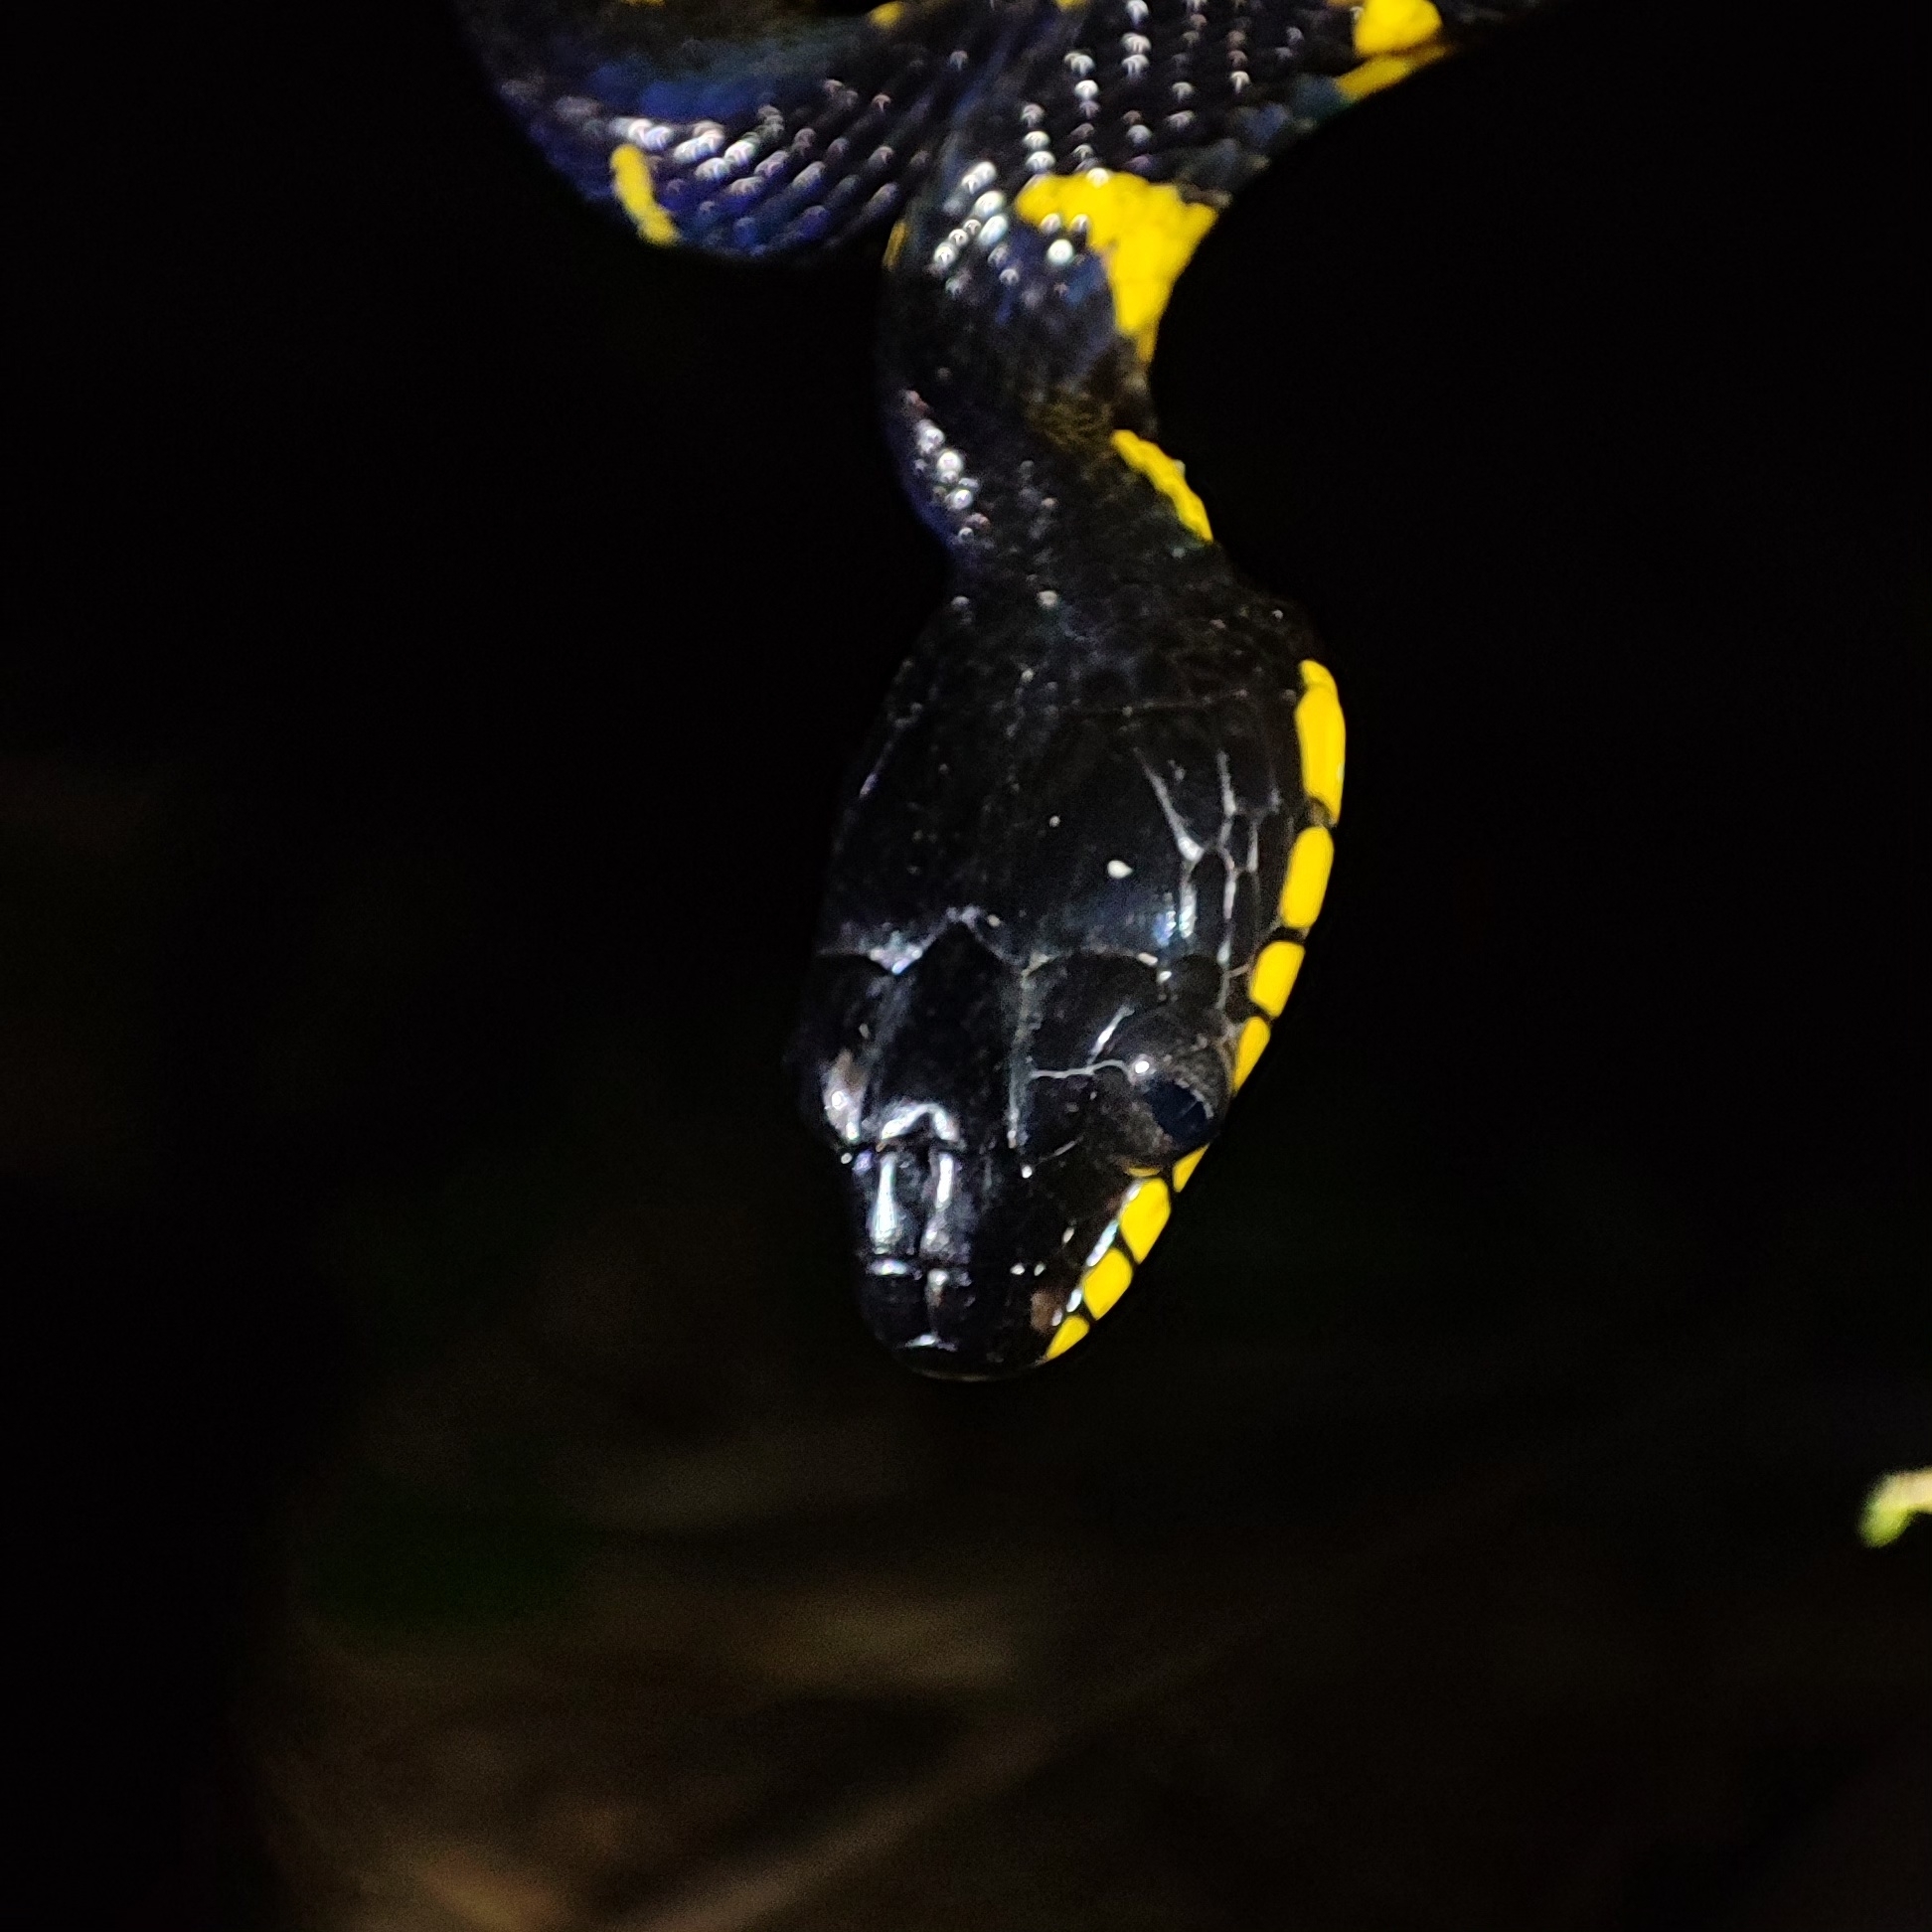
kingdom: Animalia
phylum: Chordata
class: Squamata
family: Colubridae
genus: Boiga
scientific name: Boiga melanota
